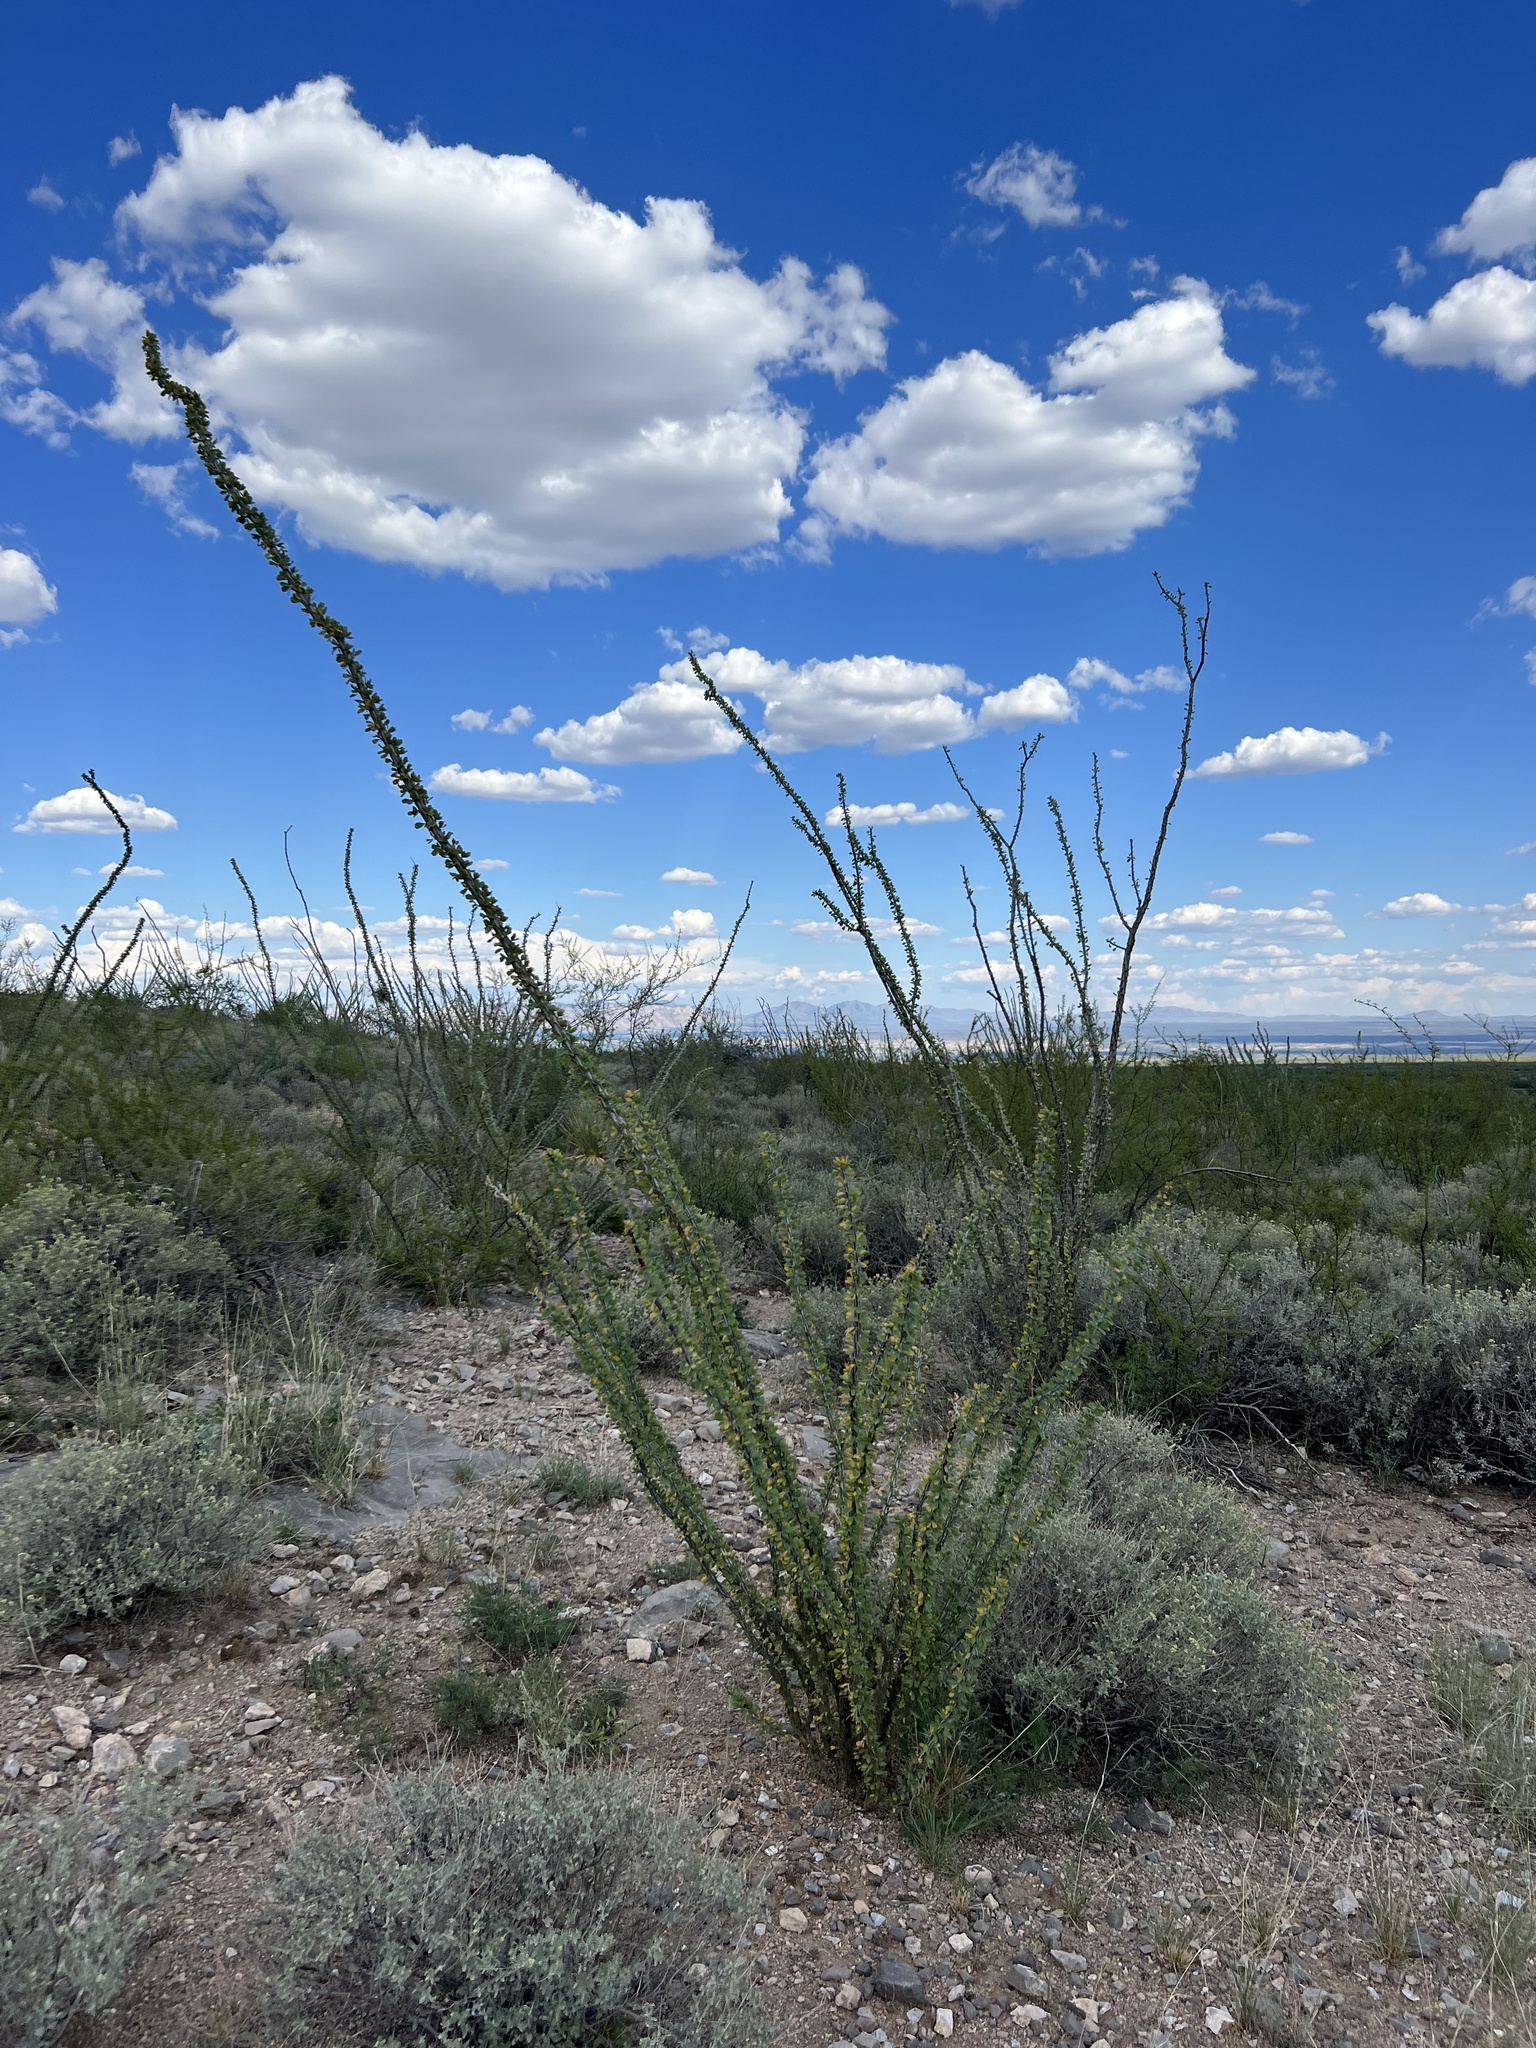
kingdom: Plantae
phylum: Tracheophyta
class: Magnoliopsida
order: Ericales
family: Fouquieriaceae
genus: Fouquieria
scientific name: Fouquieria splendens
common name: Vine-cactus
